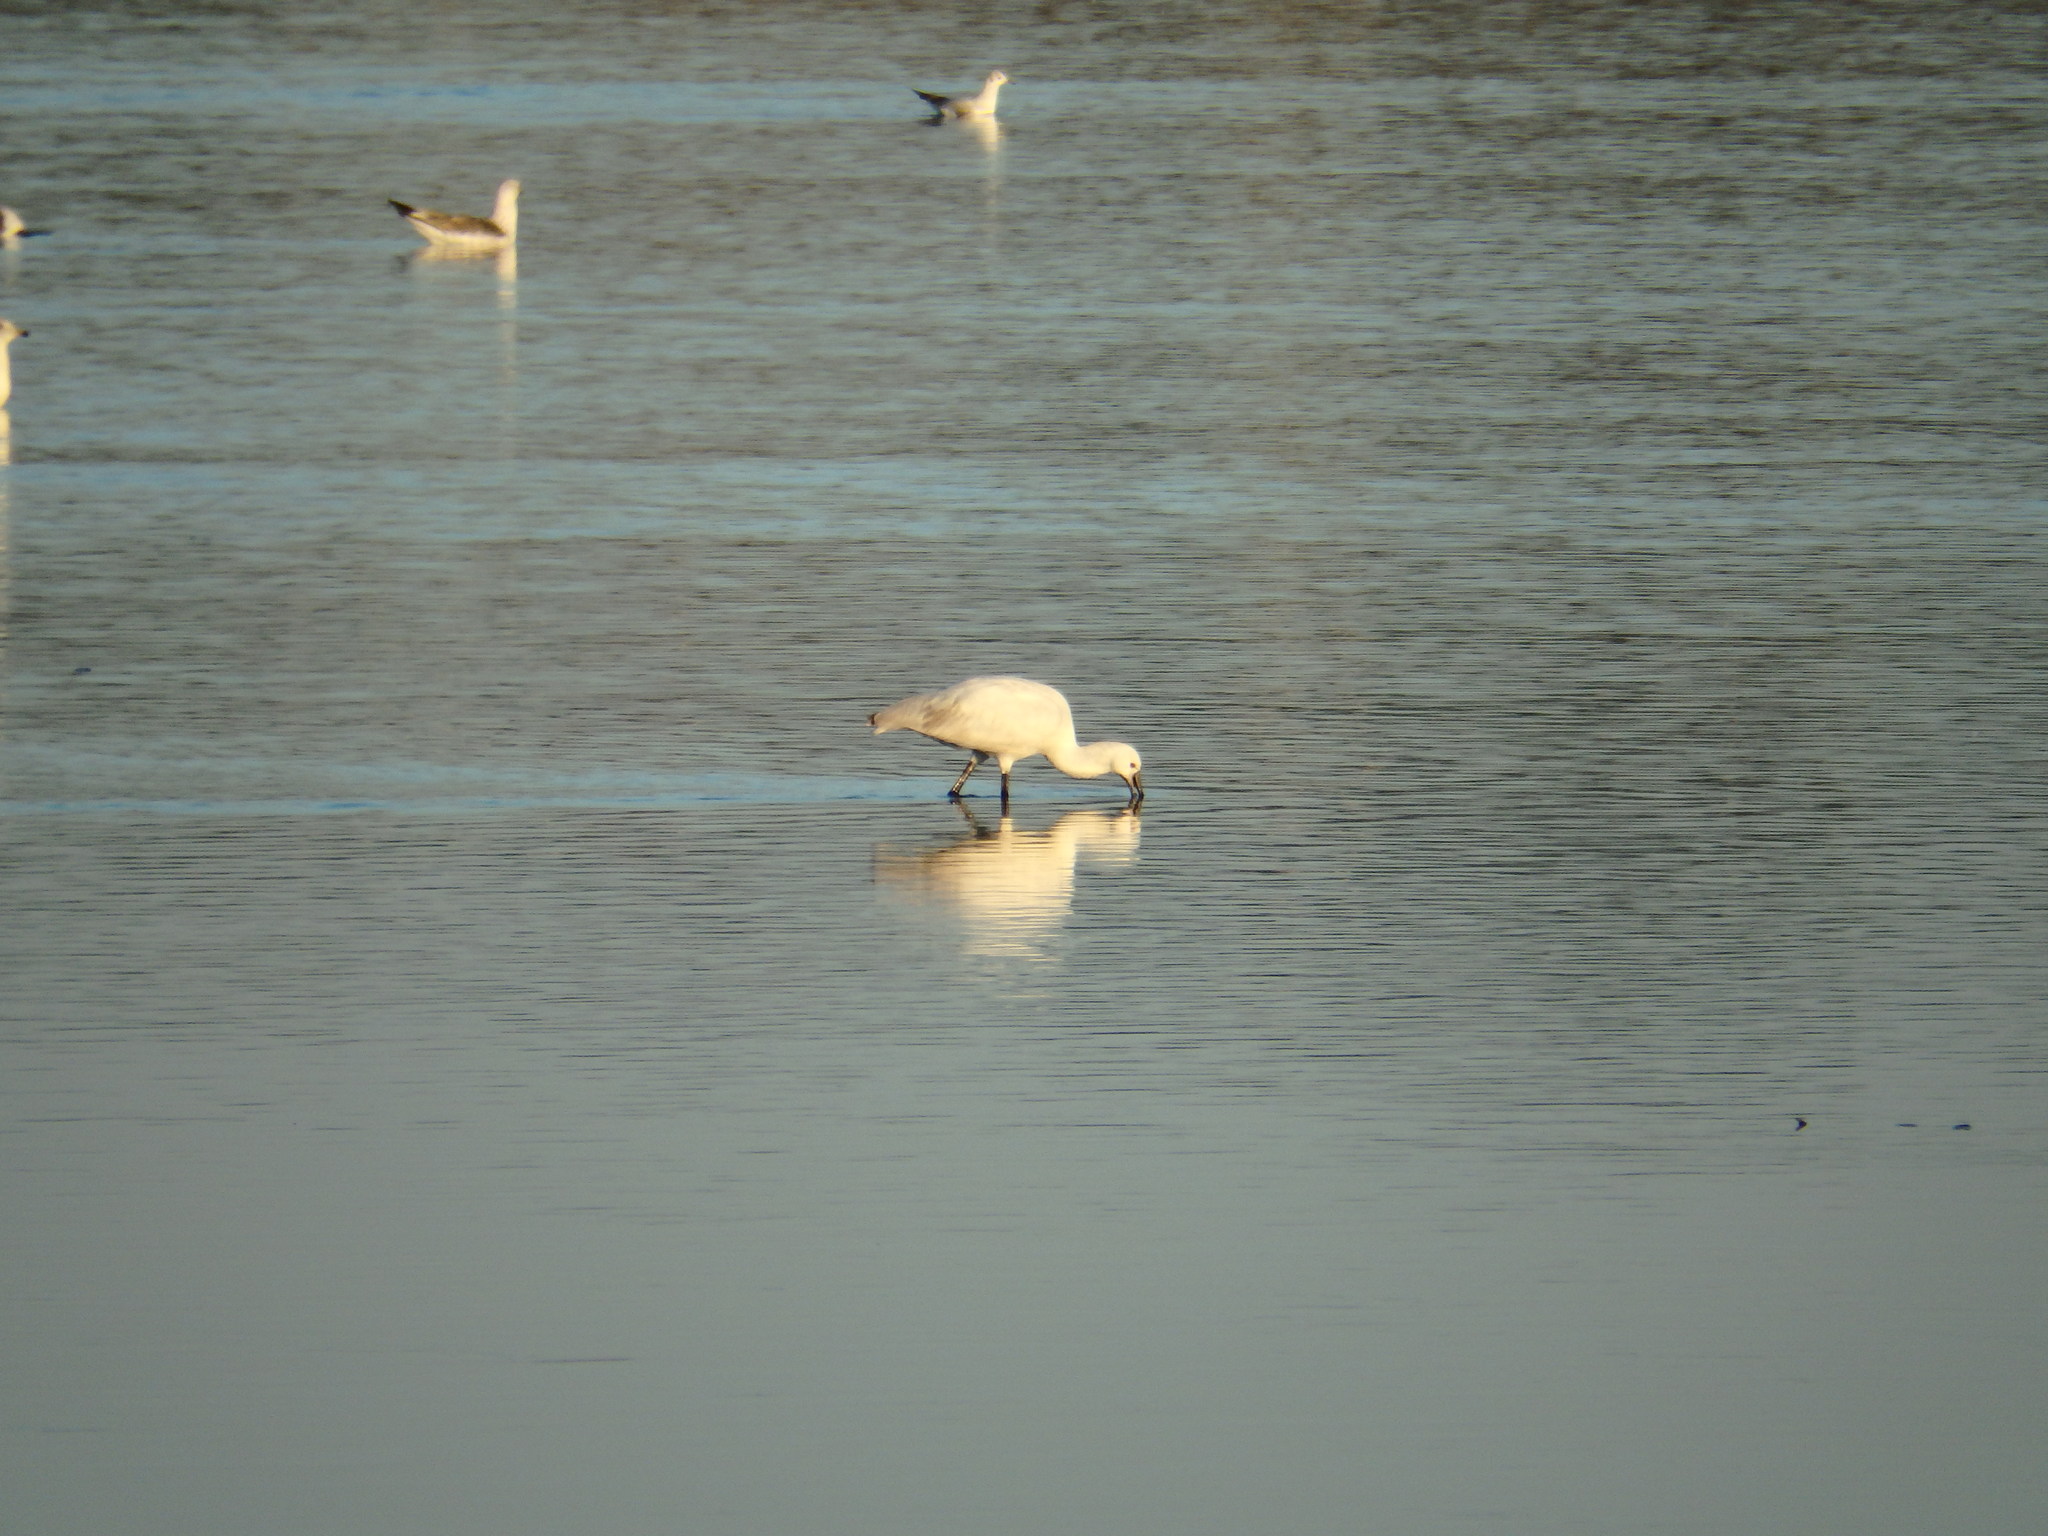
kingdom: Animalia
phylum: Chordata
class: Aves
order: Pelecaniformes
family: Threskiornithidae
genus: Platalea
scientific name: Platalea leucorodia
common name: Eurasian spoonbill
